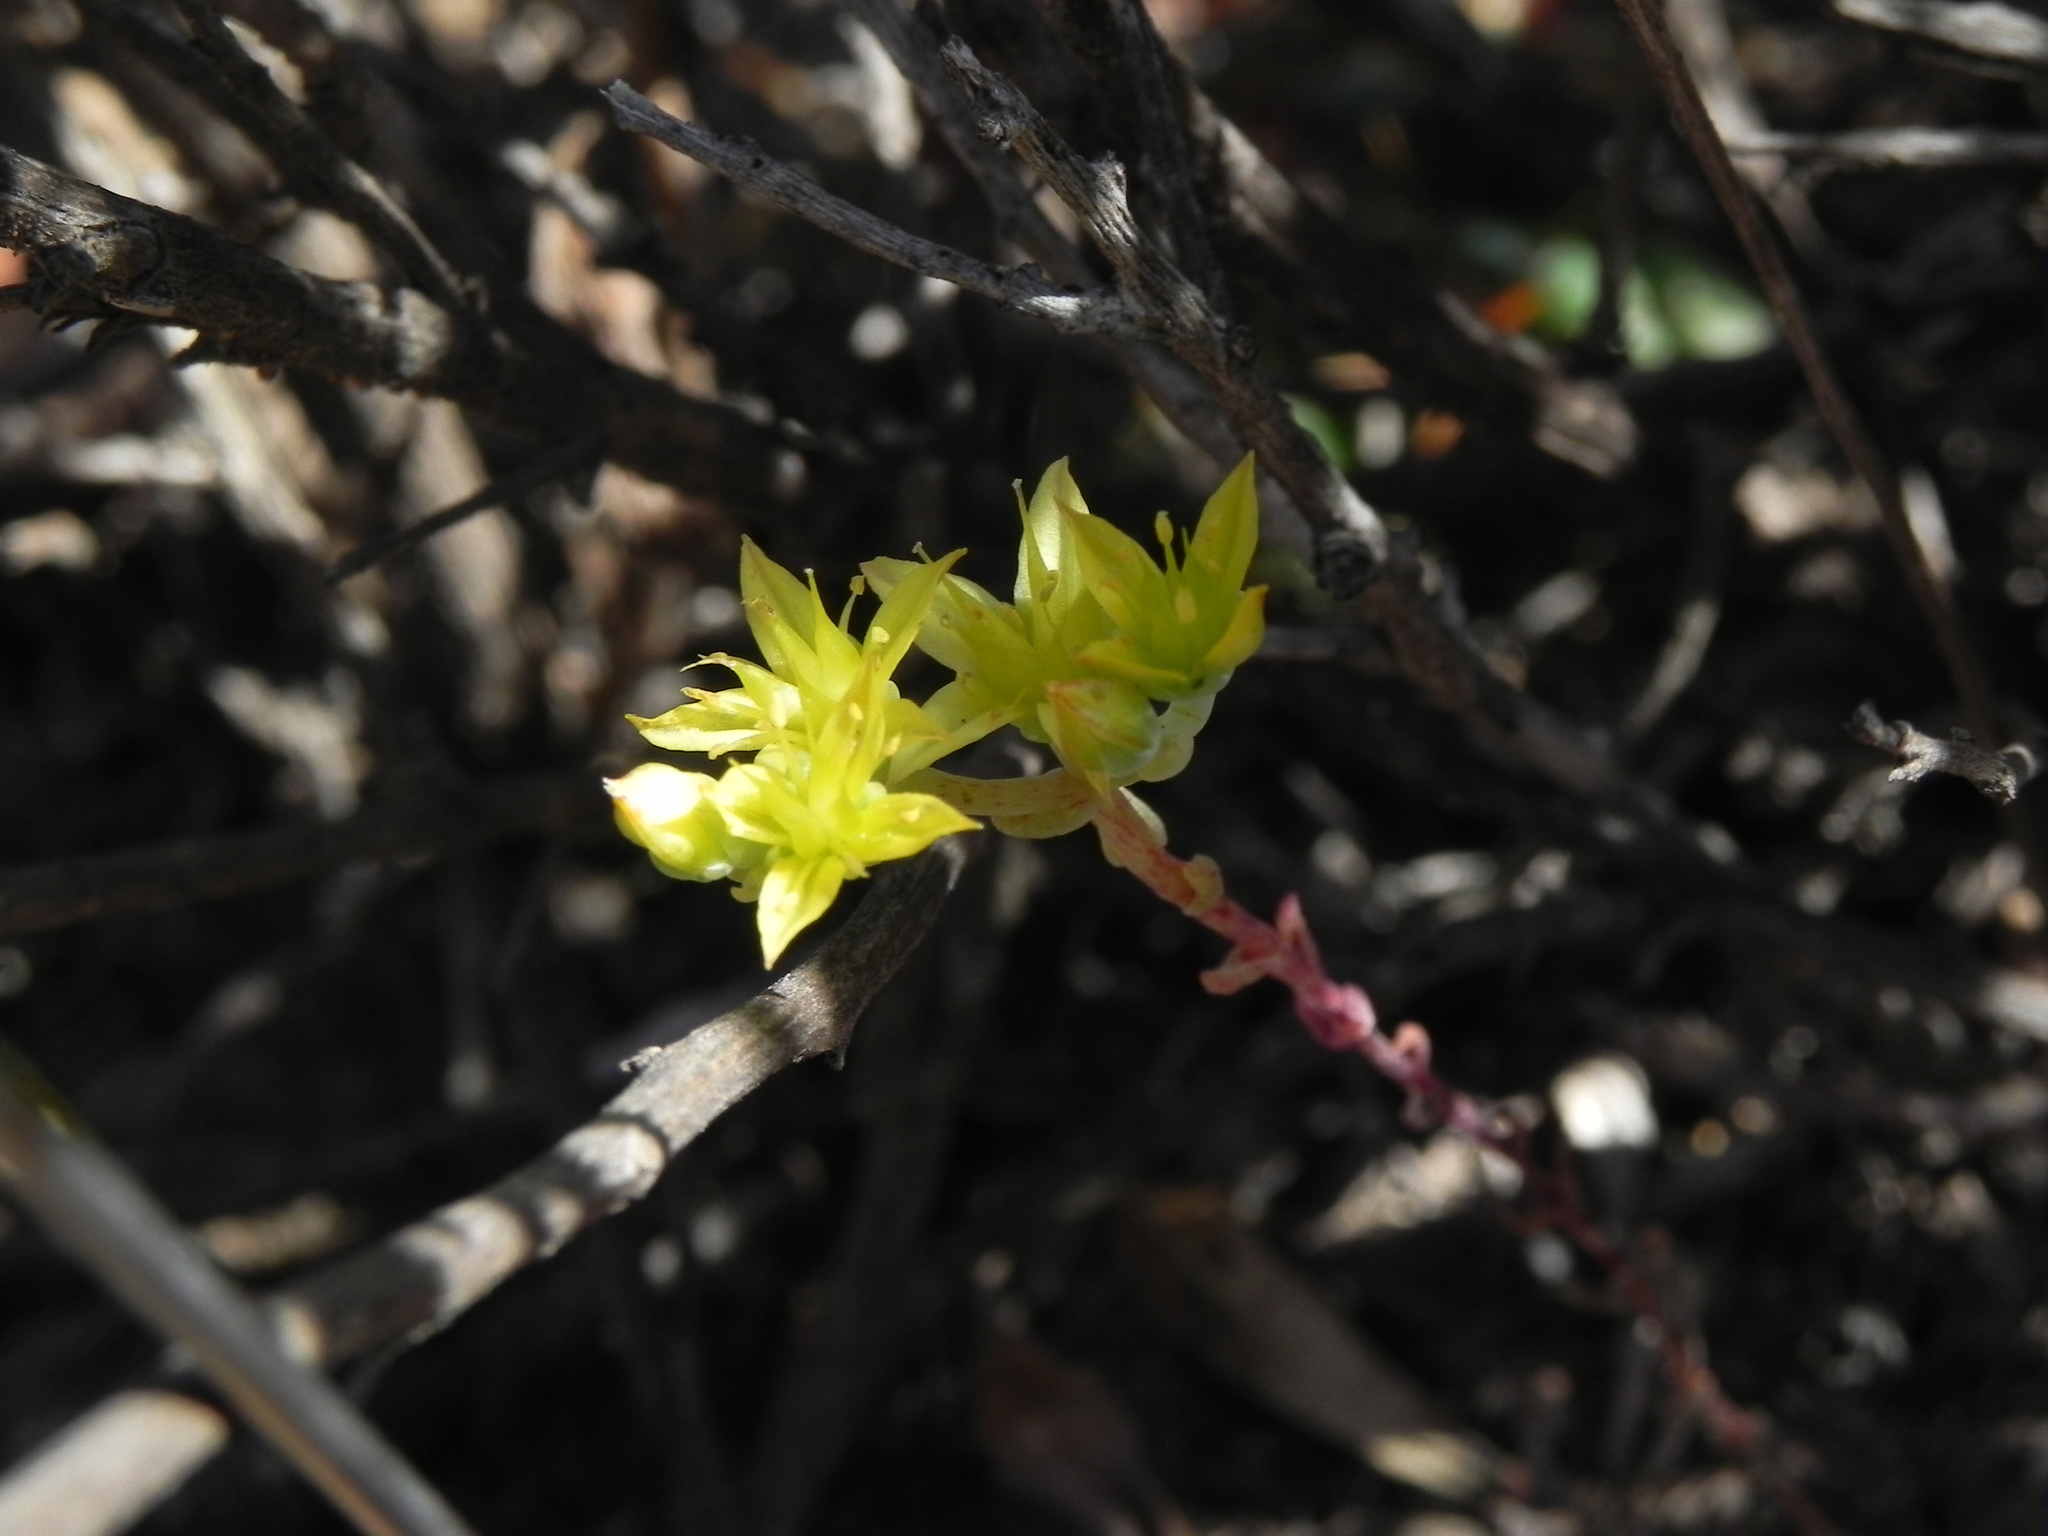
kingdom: Plantae
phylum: Tracheophyta
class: Magnoliopsida
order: Saxifragales
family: Crassulaceae
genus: Dudleya
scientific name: Dudleya variegata
